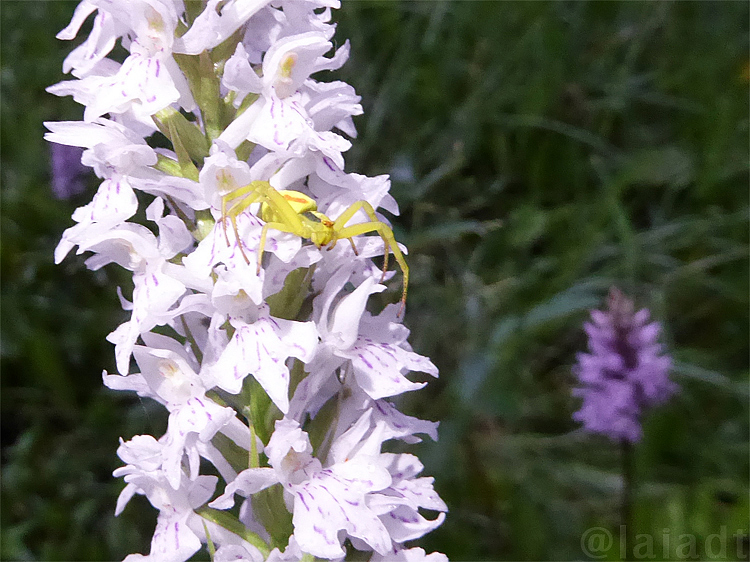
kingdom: Plantae
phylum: Tracheophyta
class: Liliopsida
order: Asparagales
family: Orchidaceae
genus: Dactylorhiza
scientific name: Dactylorhiza maculata
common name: Heath spotted-orchid
